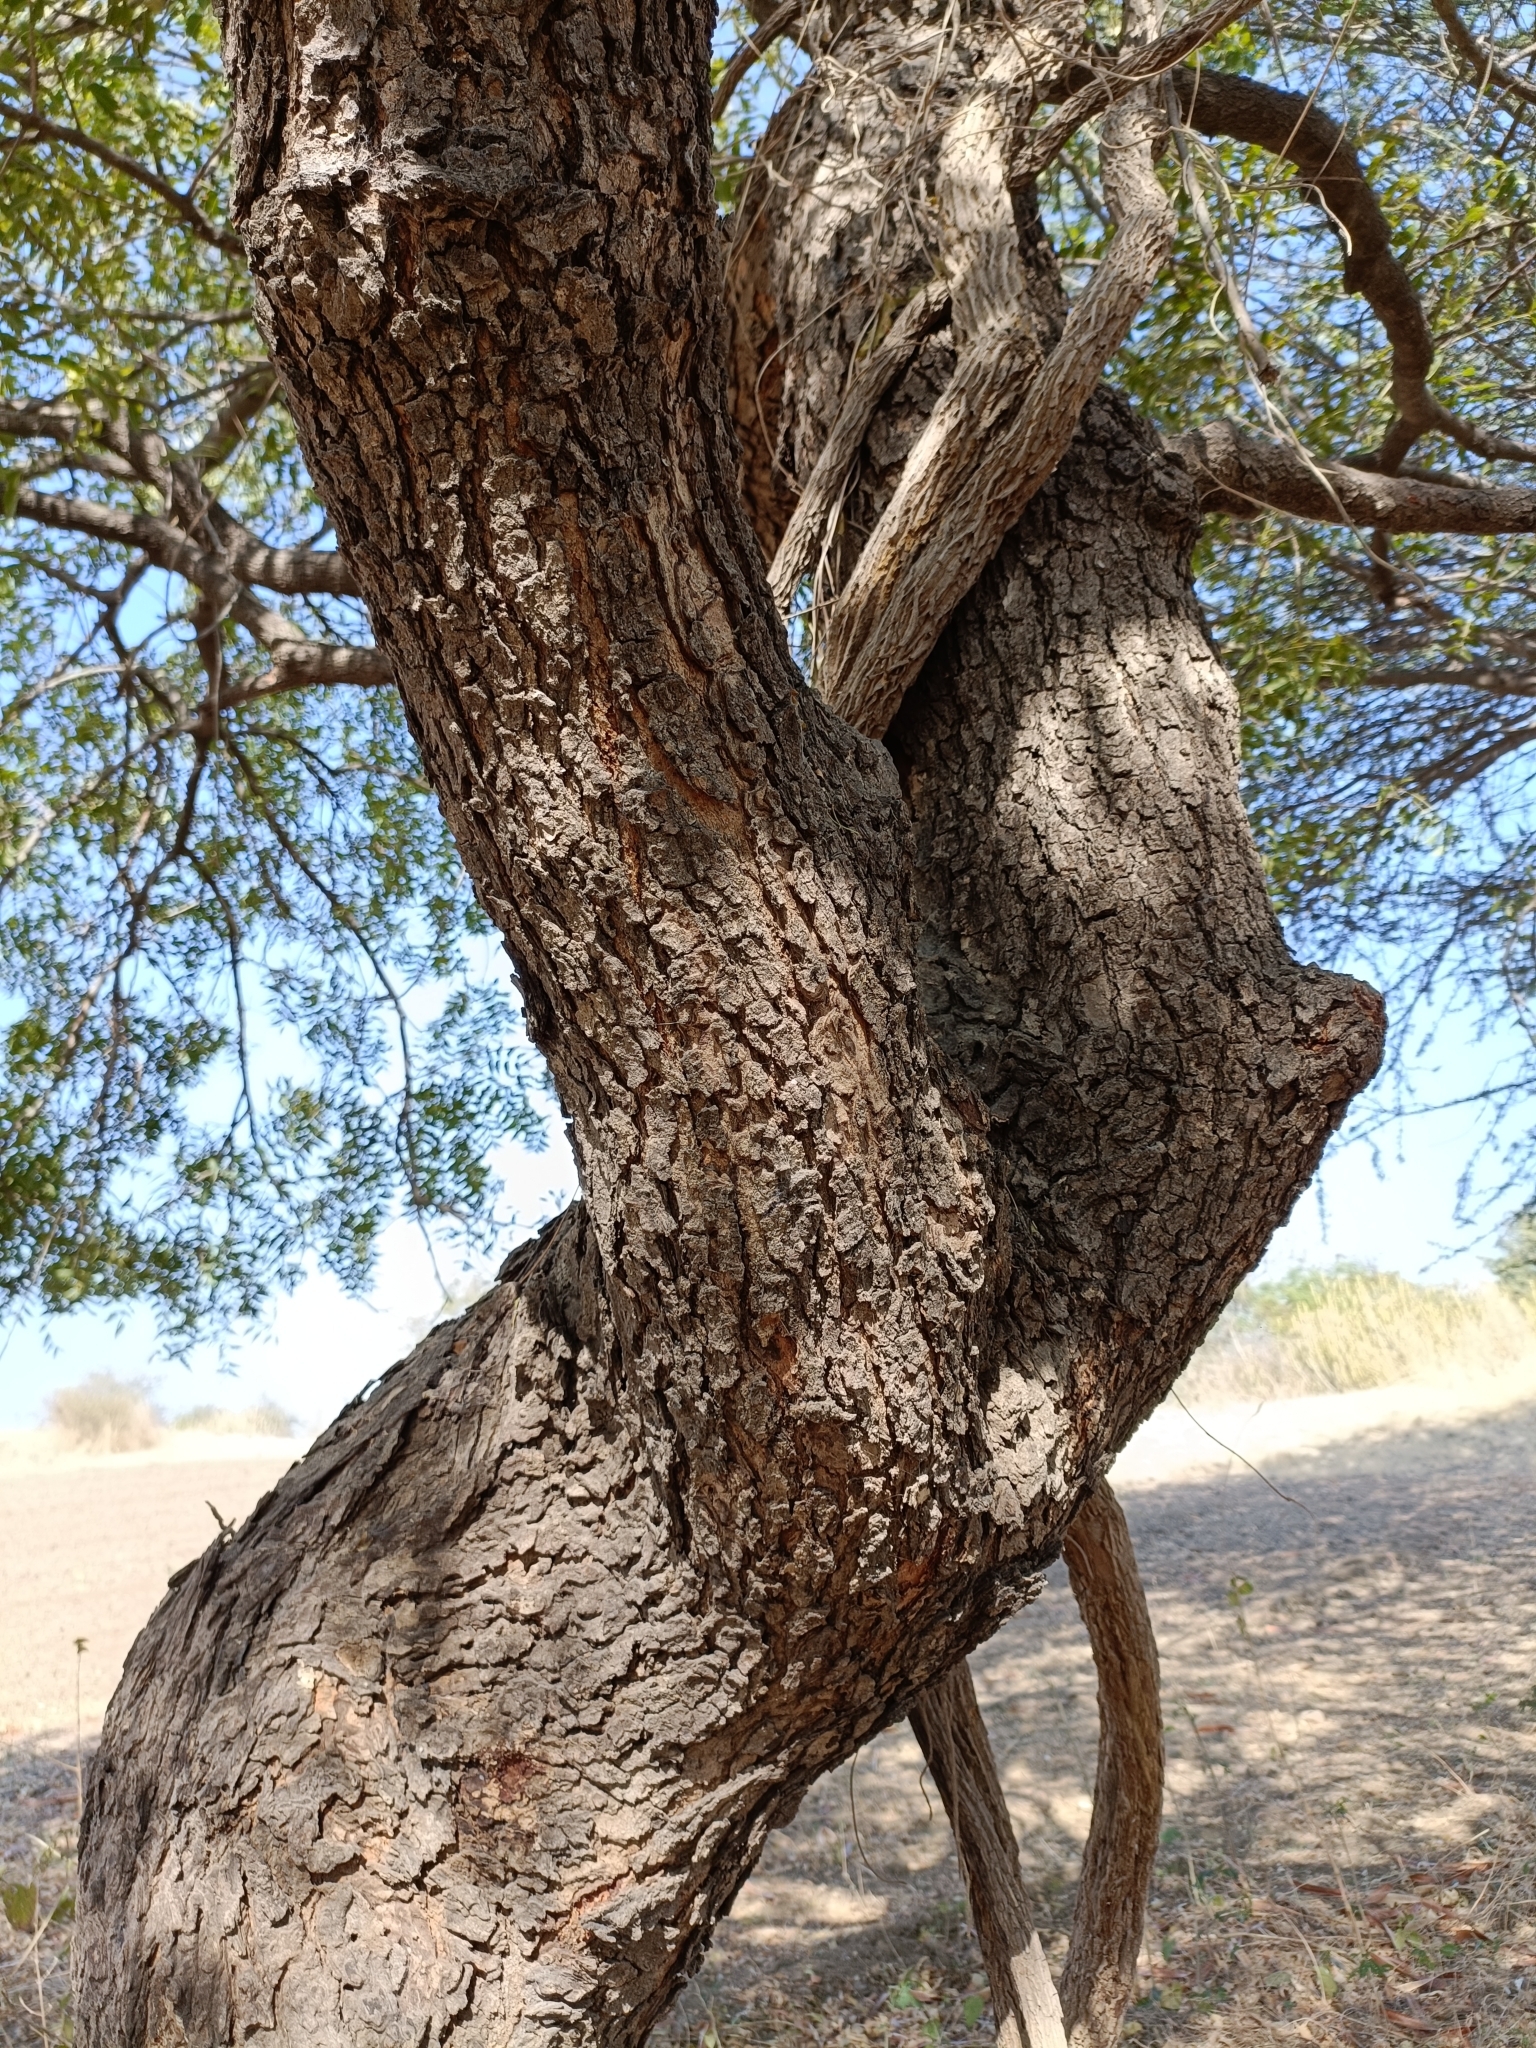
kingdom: Plantae
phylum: Tracheophyta
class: Magnoliopsida
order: Sapindales
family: Meliaceae
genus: Azadirachta
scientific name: Azadirachta indica
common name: Neem
